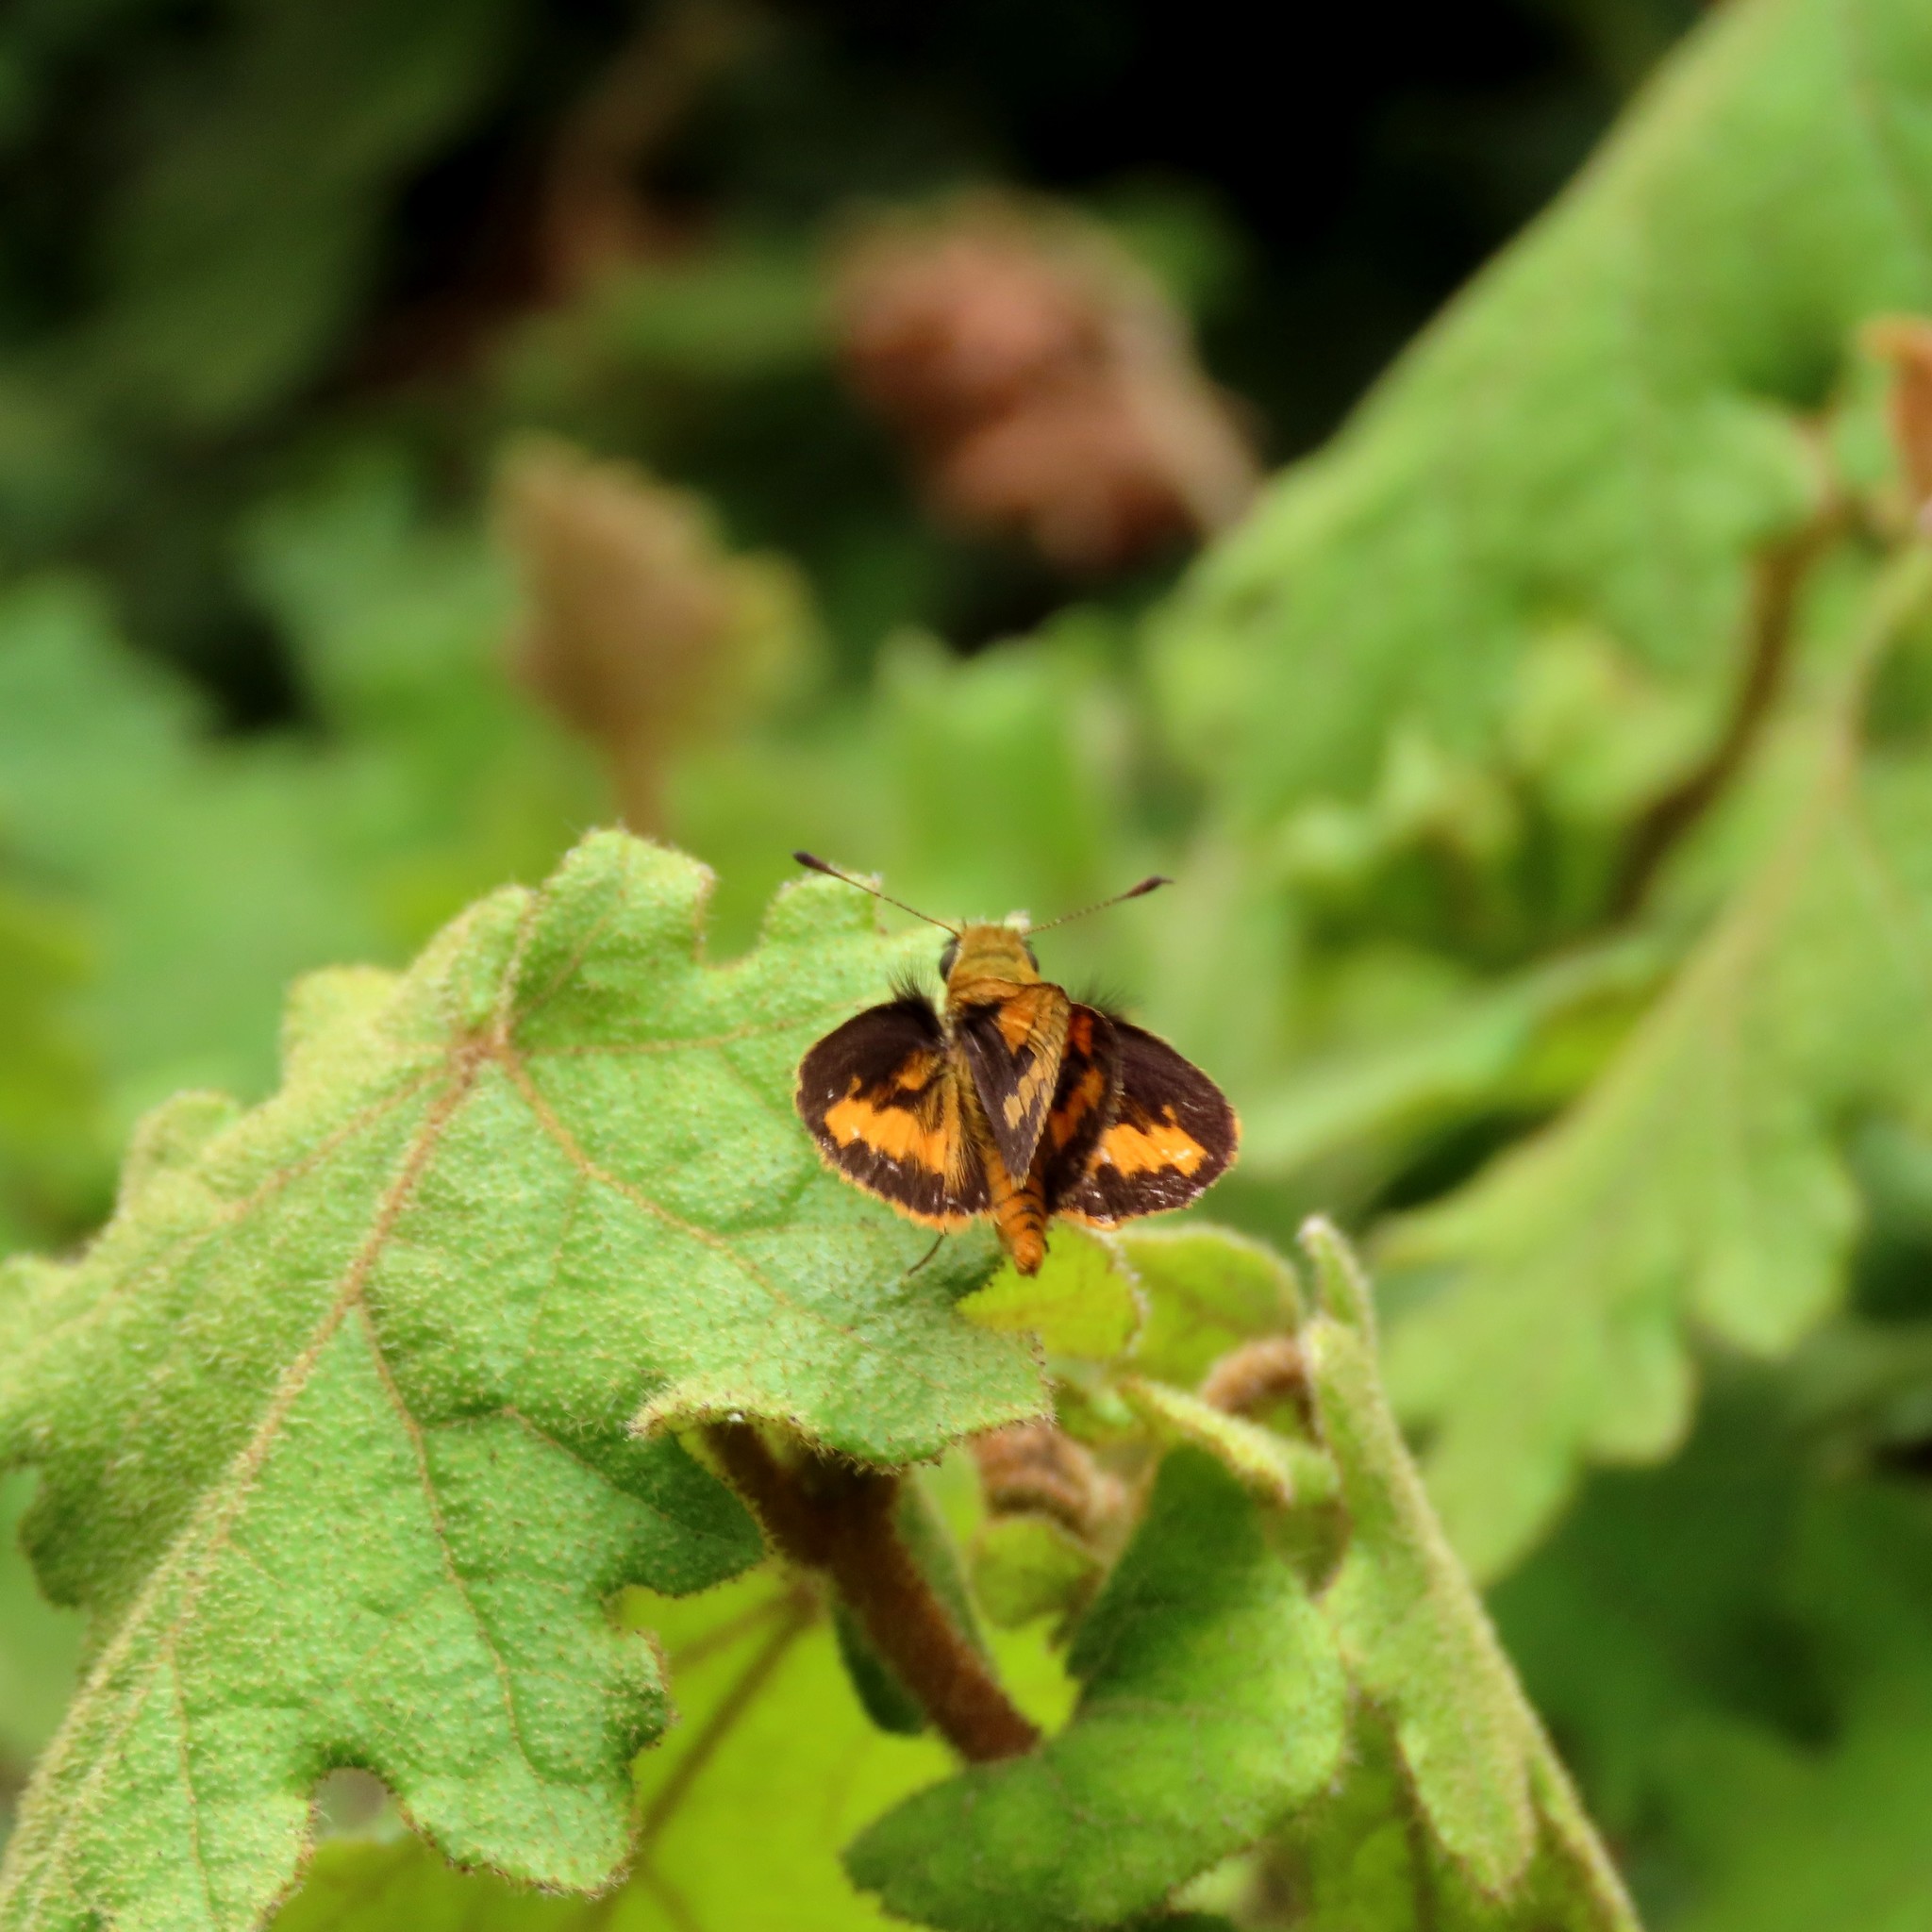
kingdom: Animalia
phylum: Arthropoda
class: Insecta
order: Lepidoptera
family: Hesperiidae
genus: Ocybadistes
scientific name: Ocybadistes walkeri
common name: Yellow-banded dart
